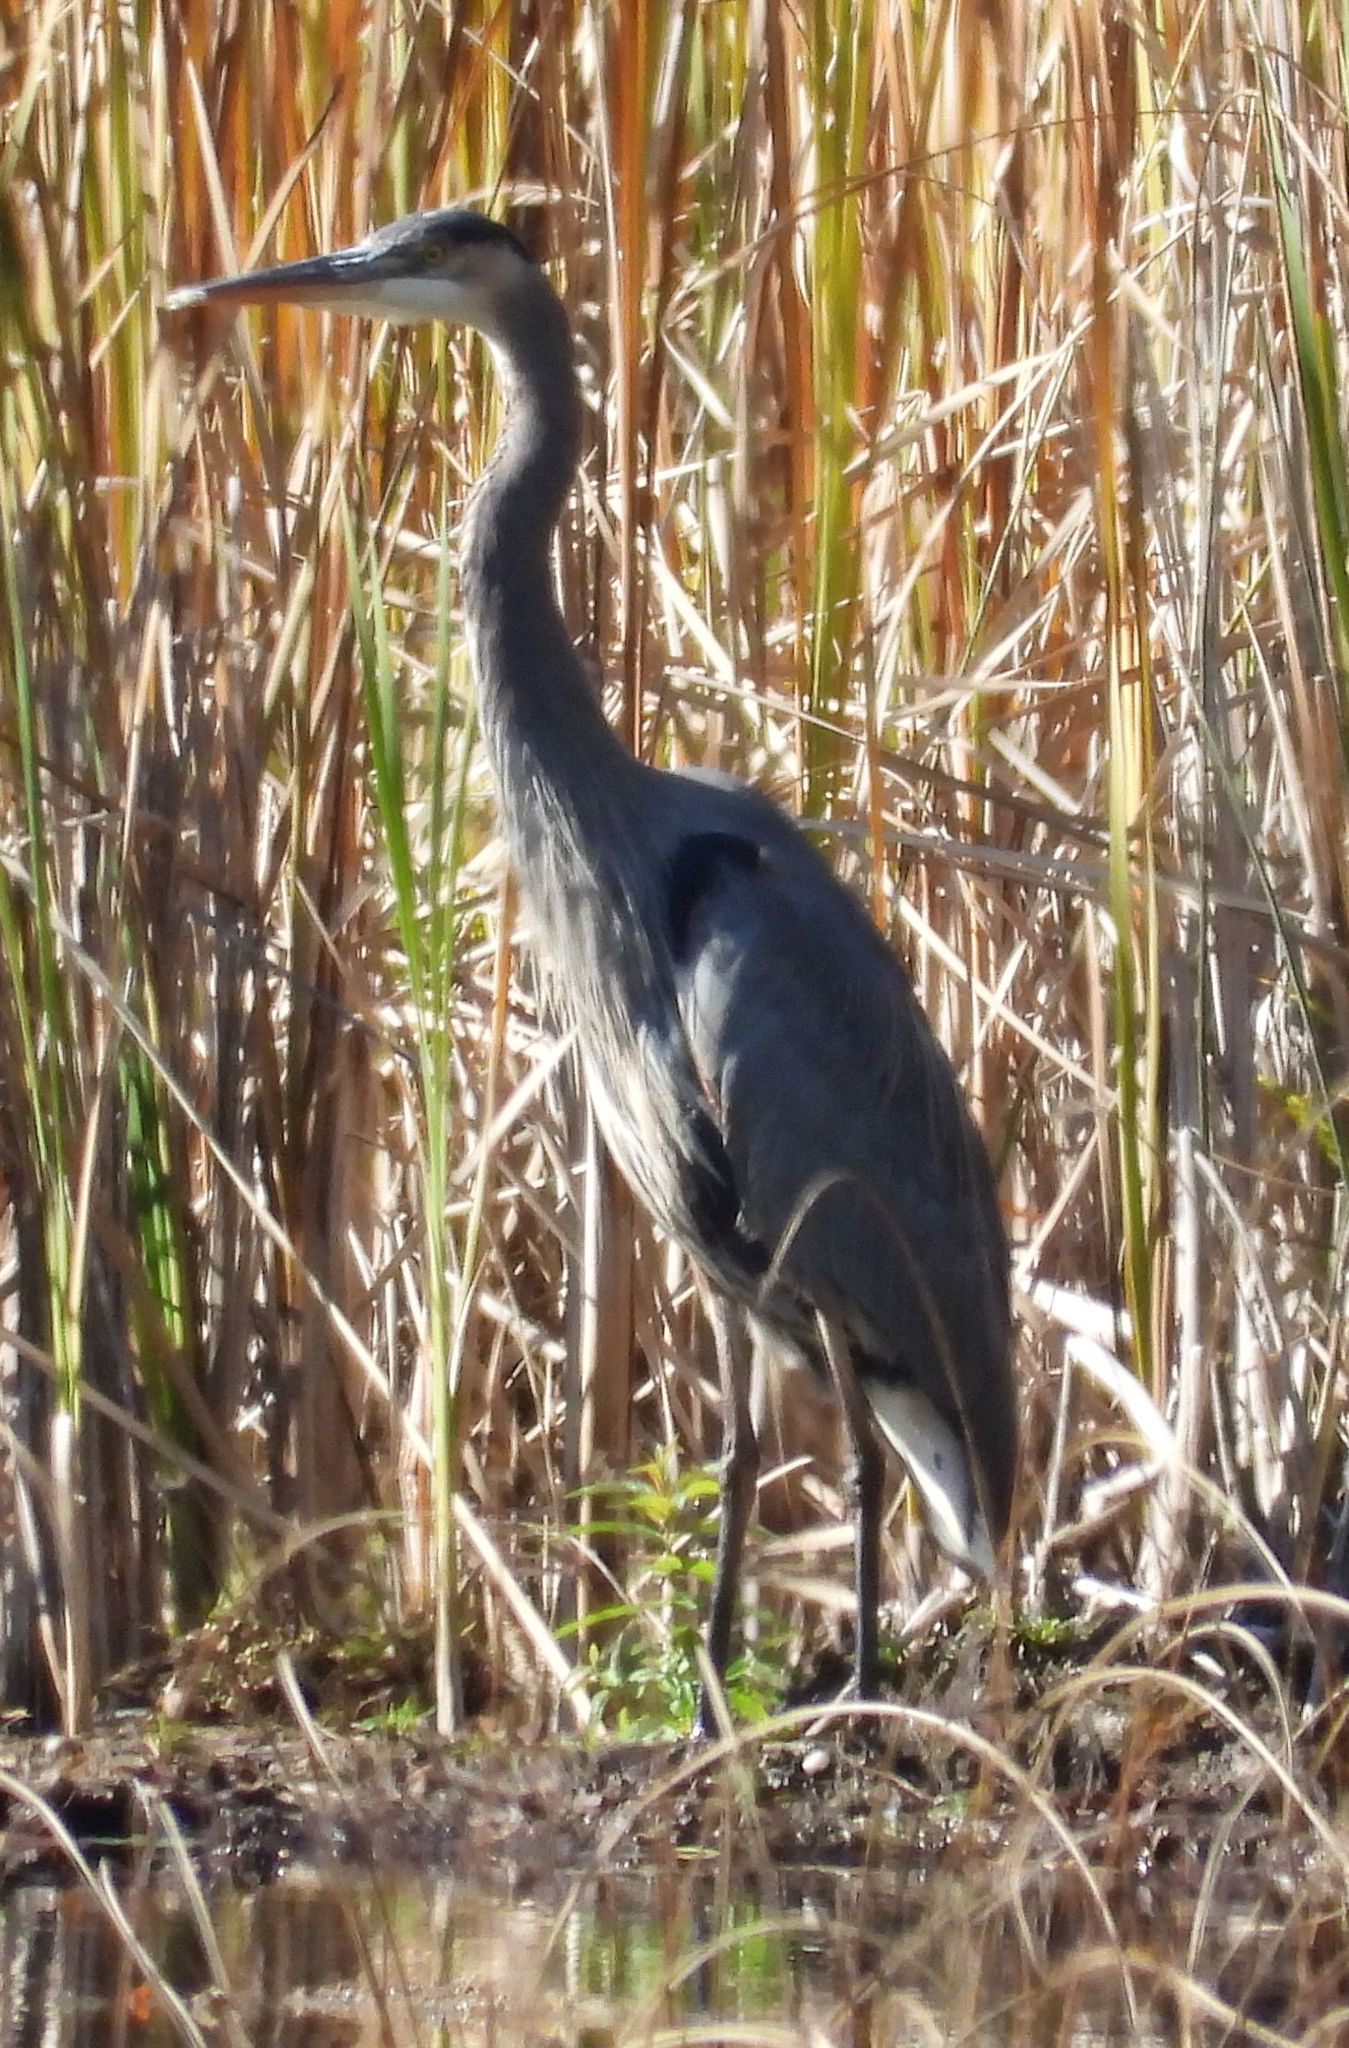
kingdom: Animalia
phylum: Chordata
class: Aves
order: Pelecaniformes
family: Ardeidae
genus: Ardea
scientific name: Ardea herodias
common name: Great blue heron
